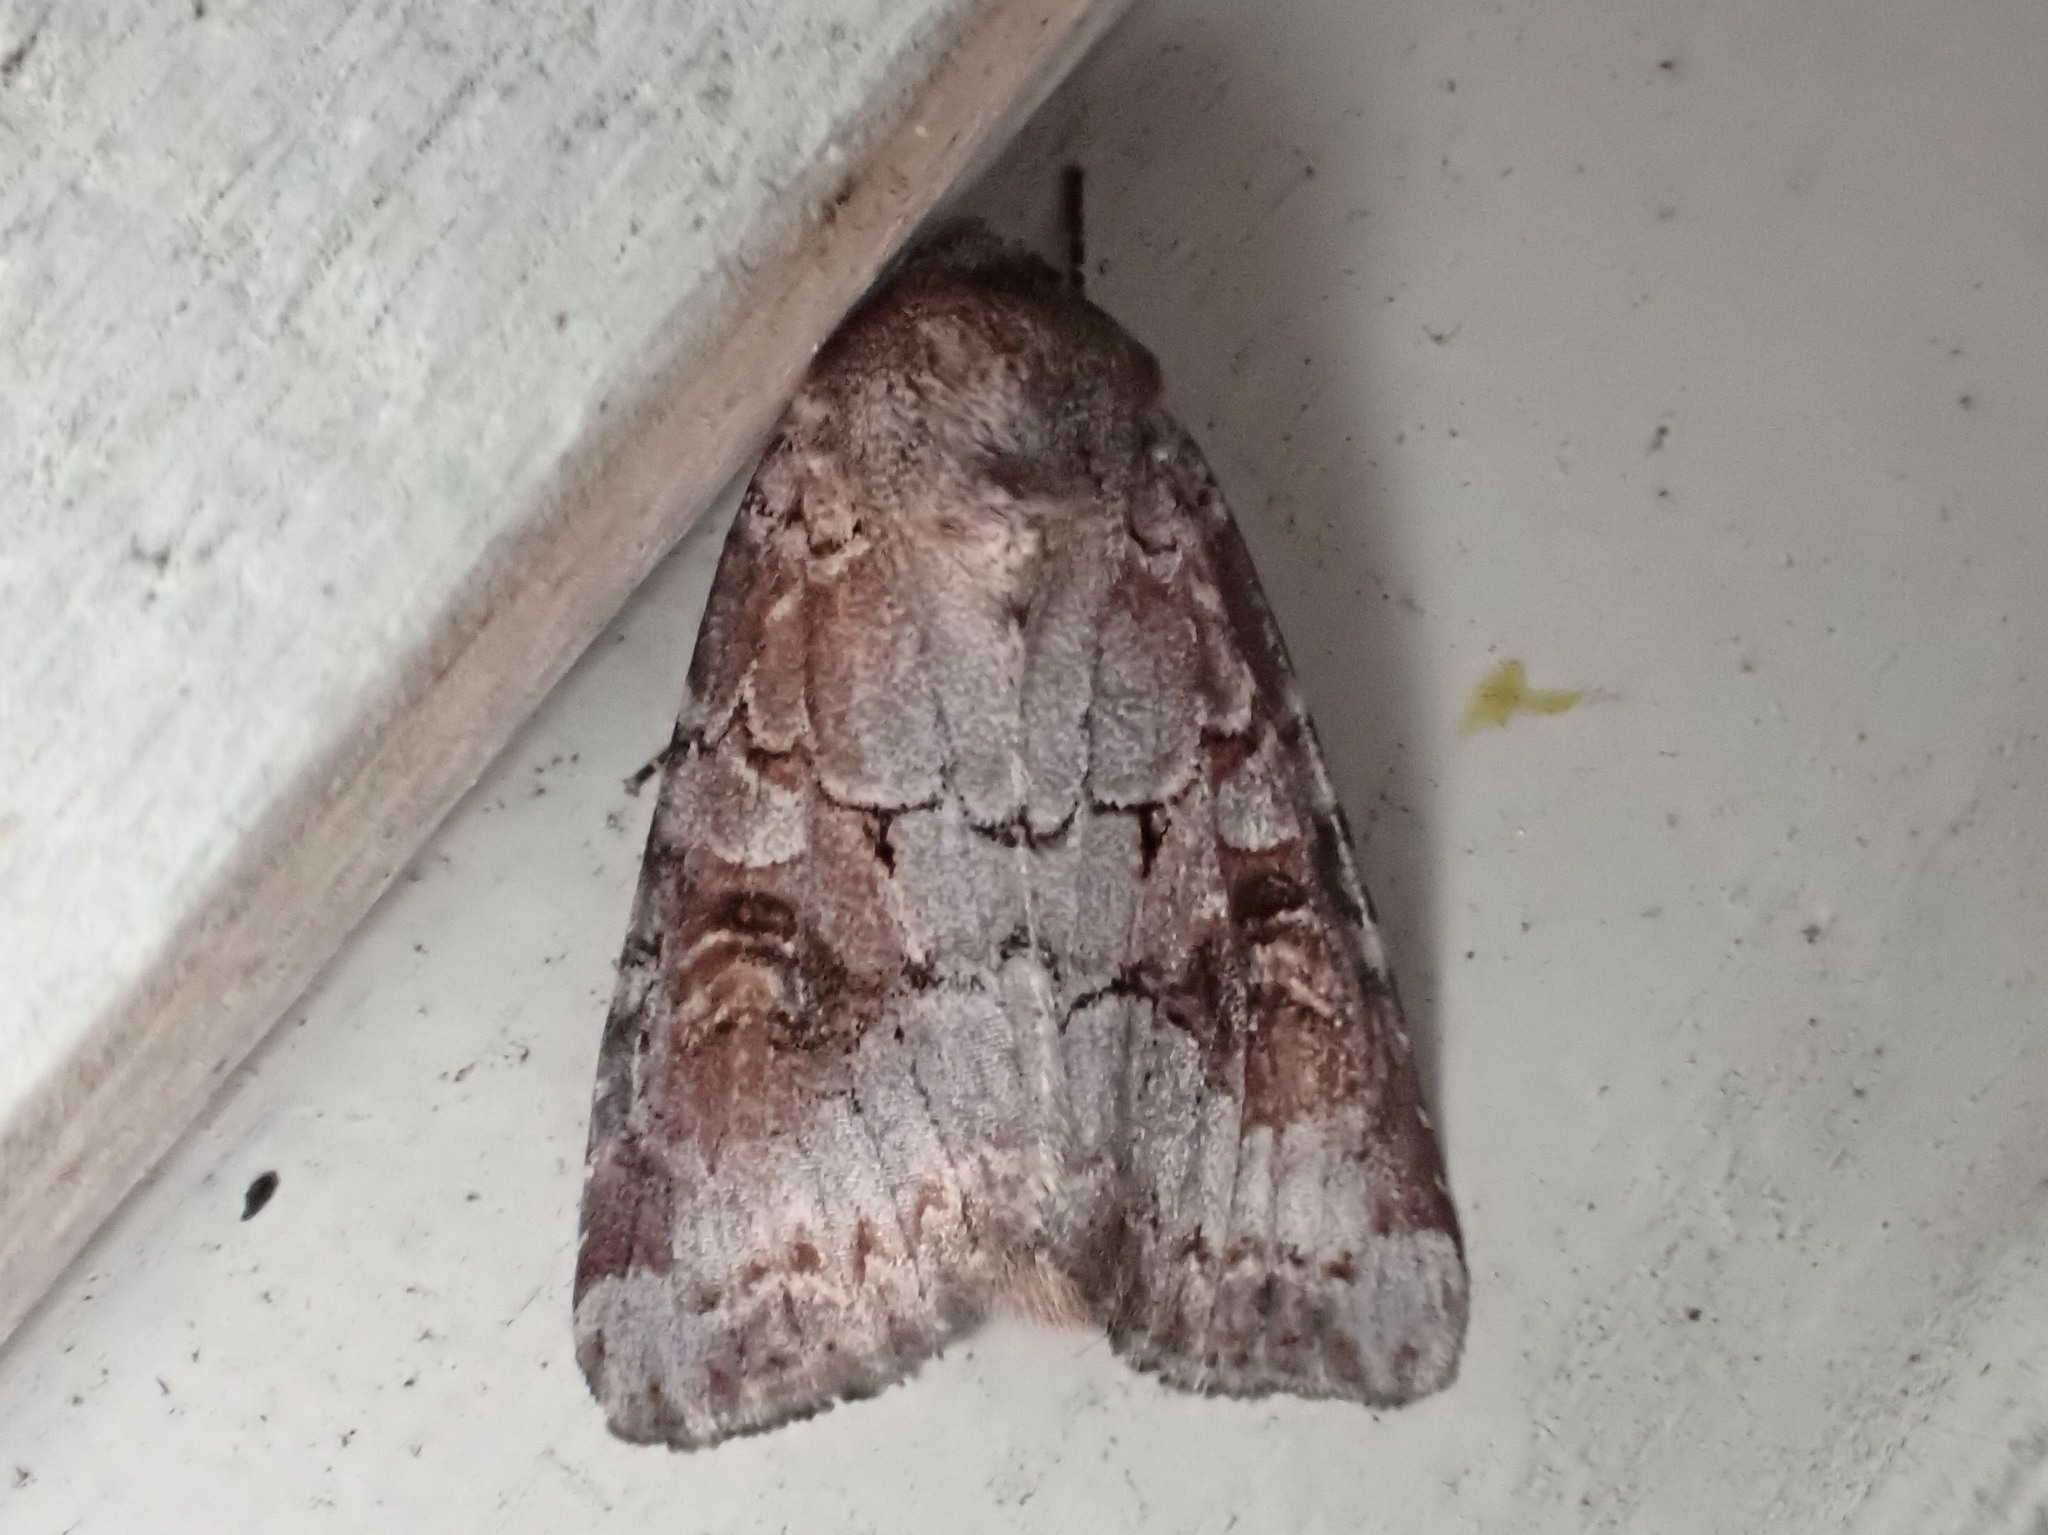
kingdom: Animalia
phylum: Arthropoda
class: Insecta
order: Lepidoptera
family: Noctuidae
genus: Trichordestra
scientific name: Trichordestra legitima
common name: Striped garden caterpillar
